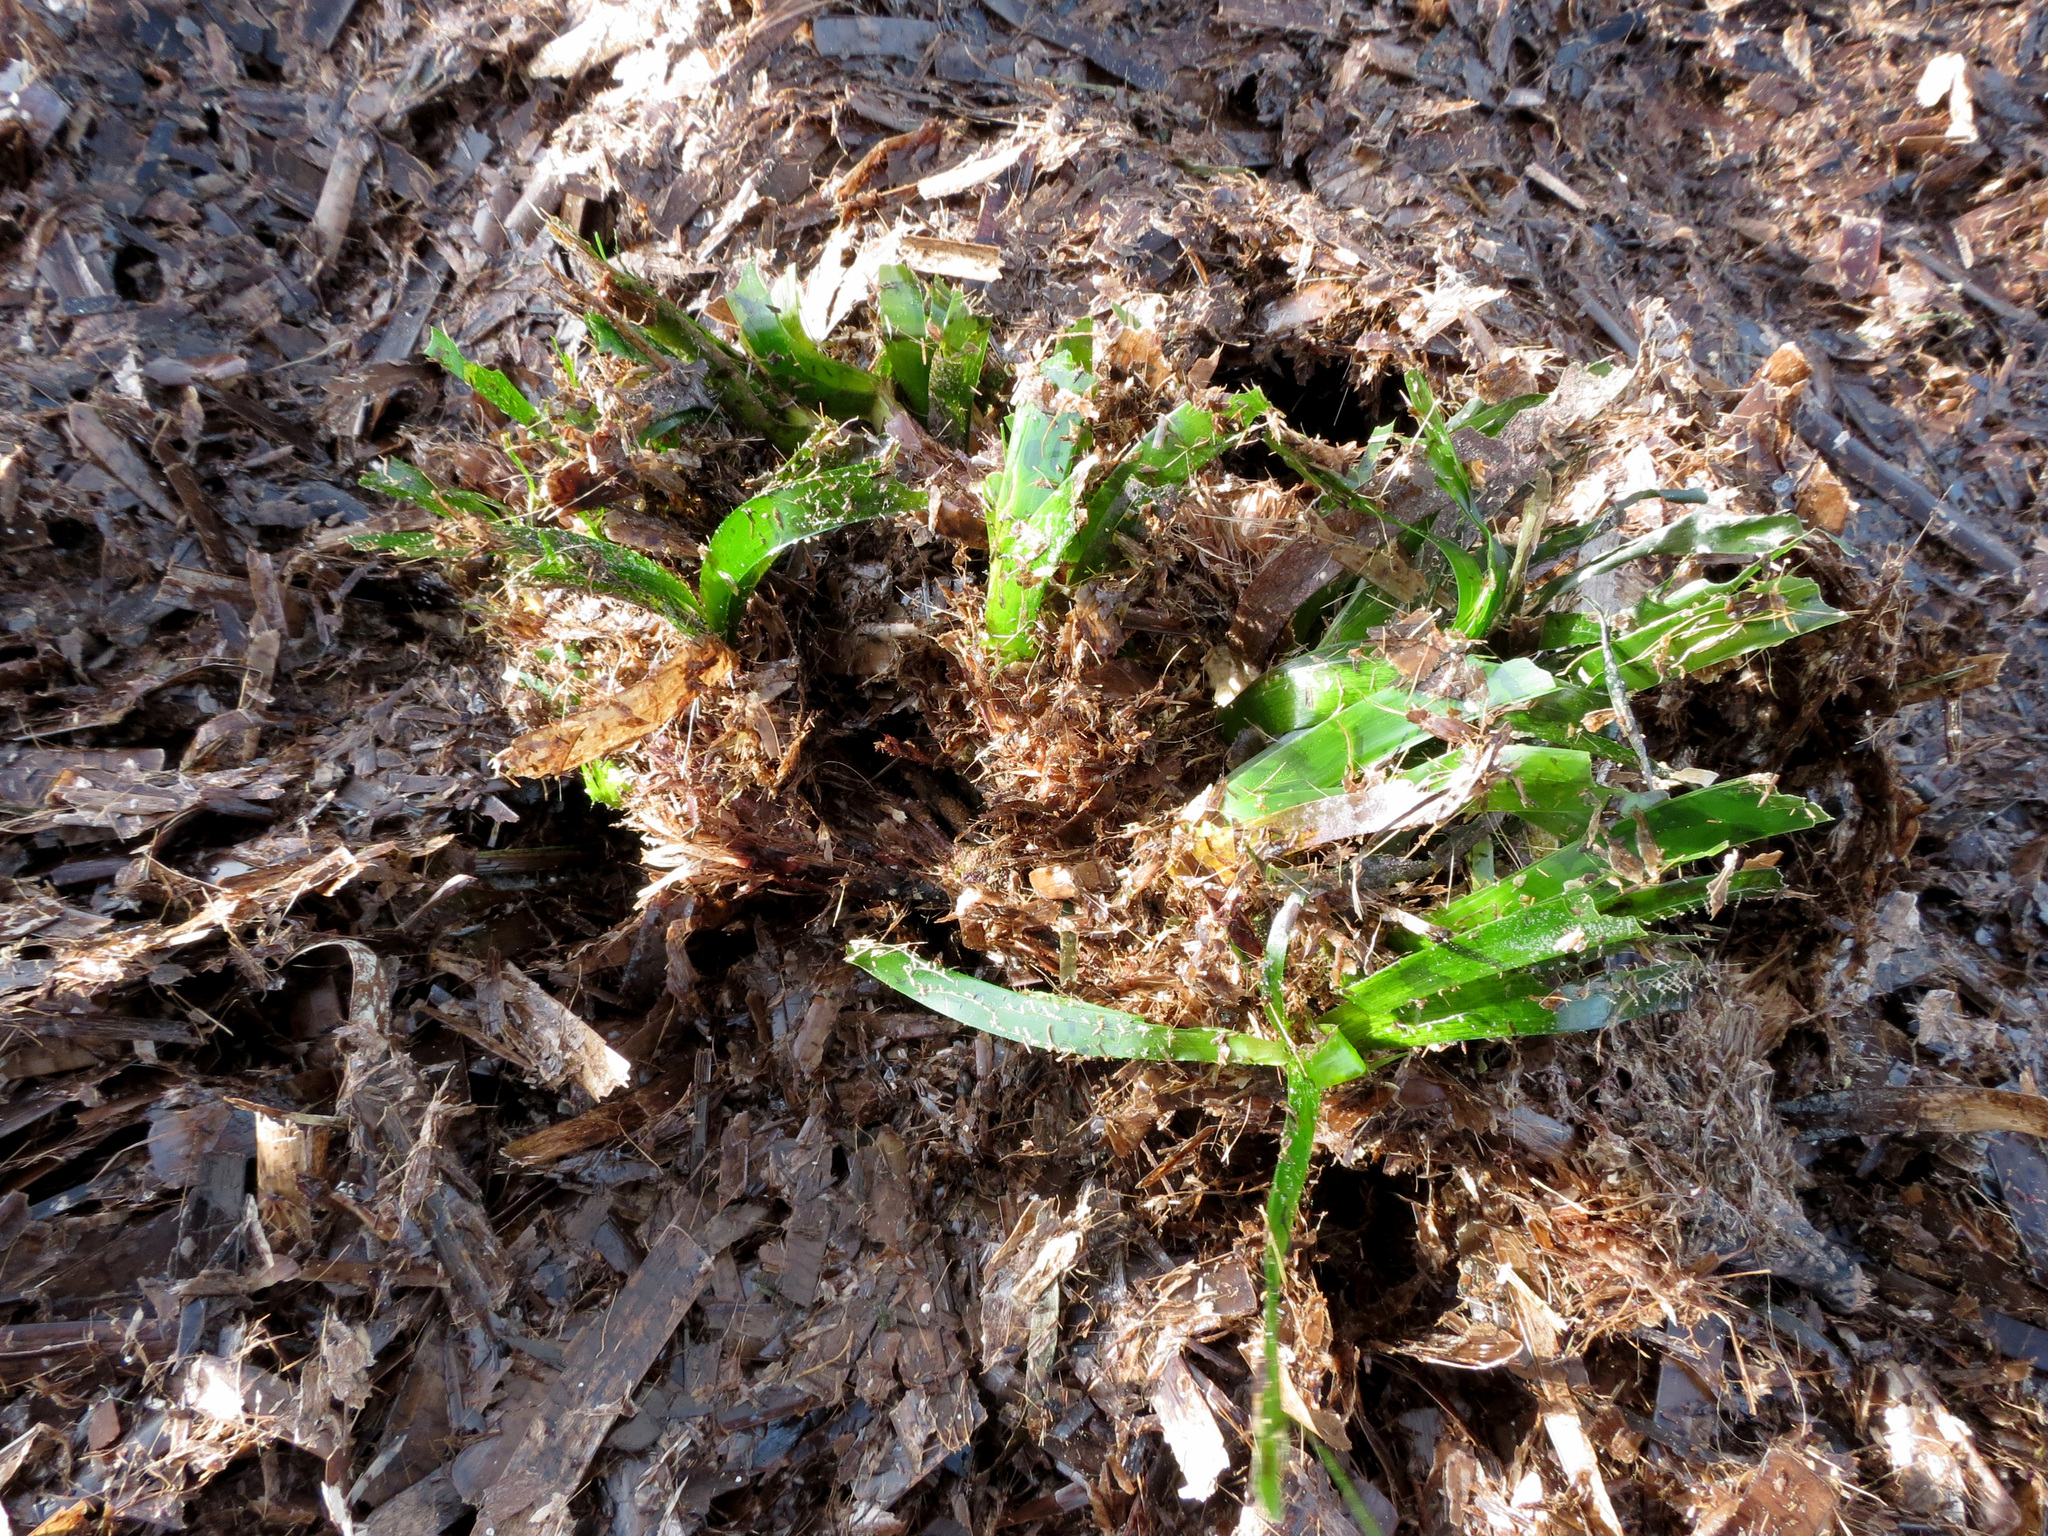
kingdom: Plantae
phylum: Tracheophyta
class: Liliopsida
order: Alismatales
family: Posidoniaceae
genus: Posidonia
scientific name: Posidonia oceanica
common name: Mediterranean tapeweed
